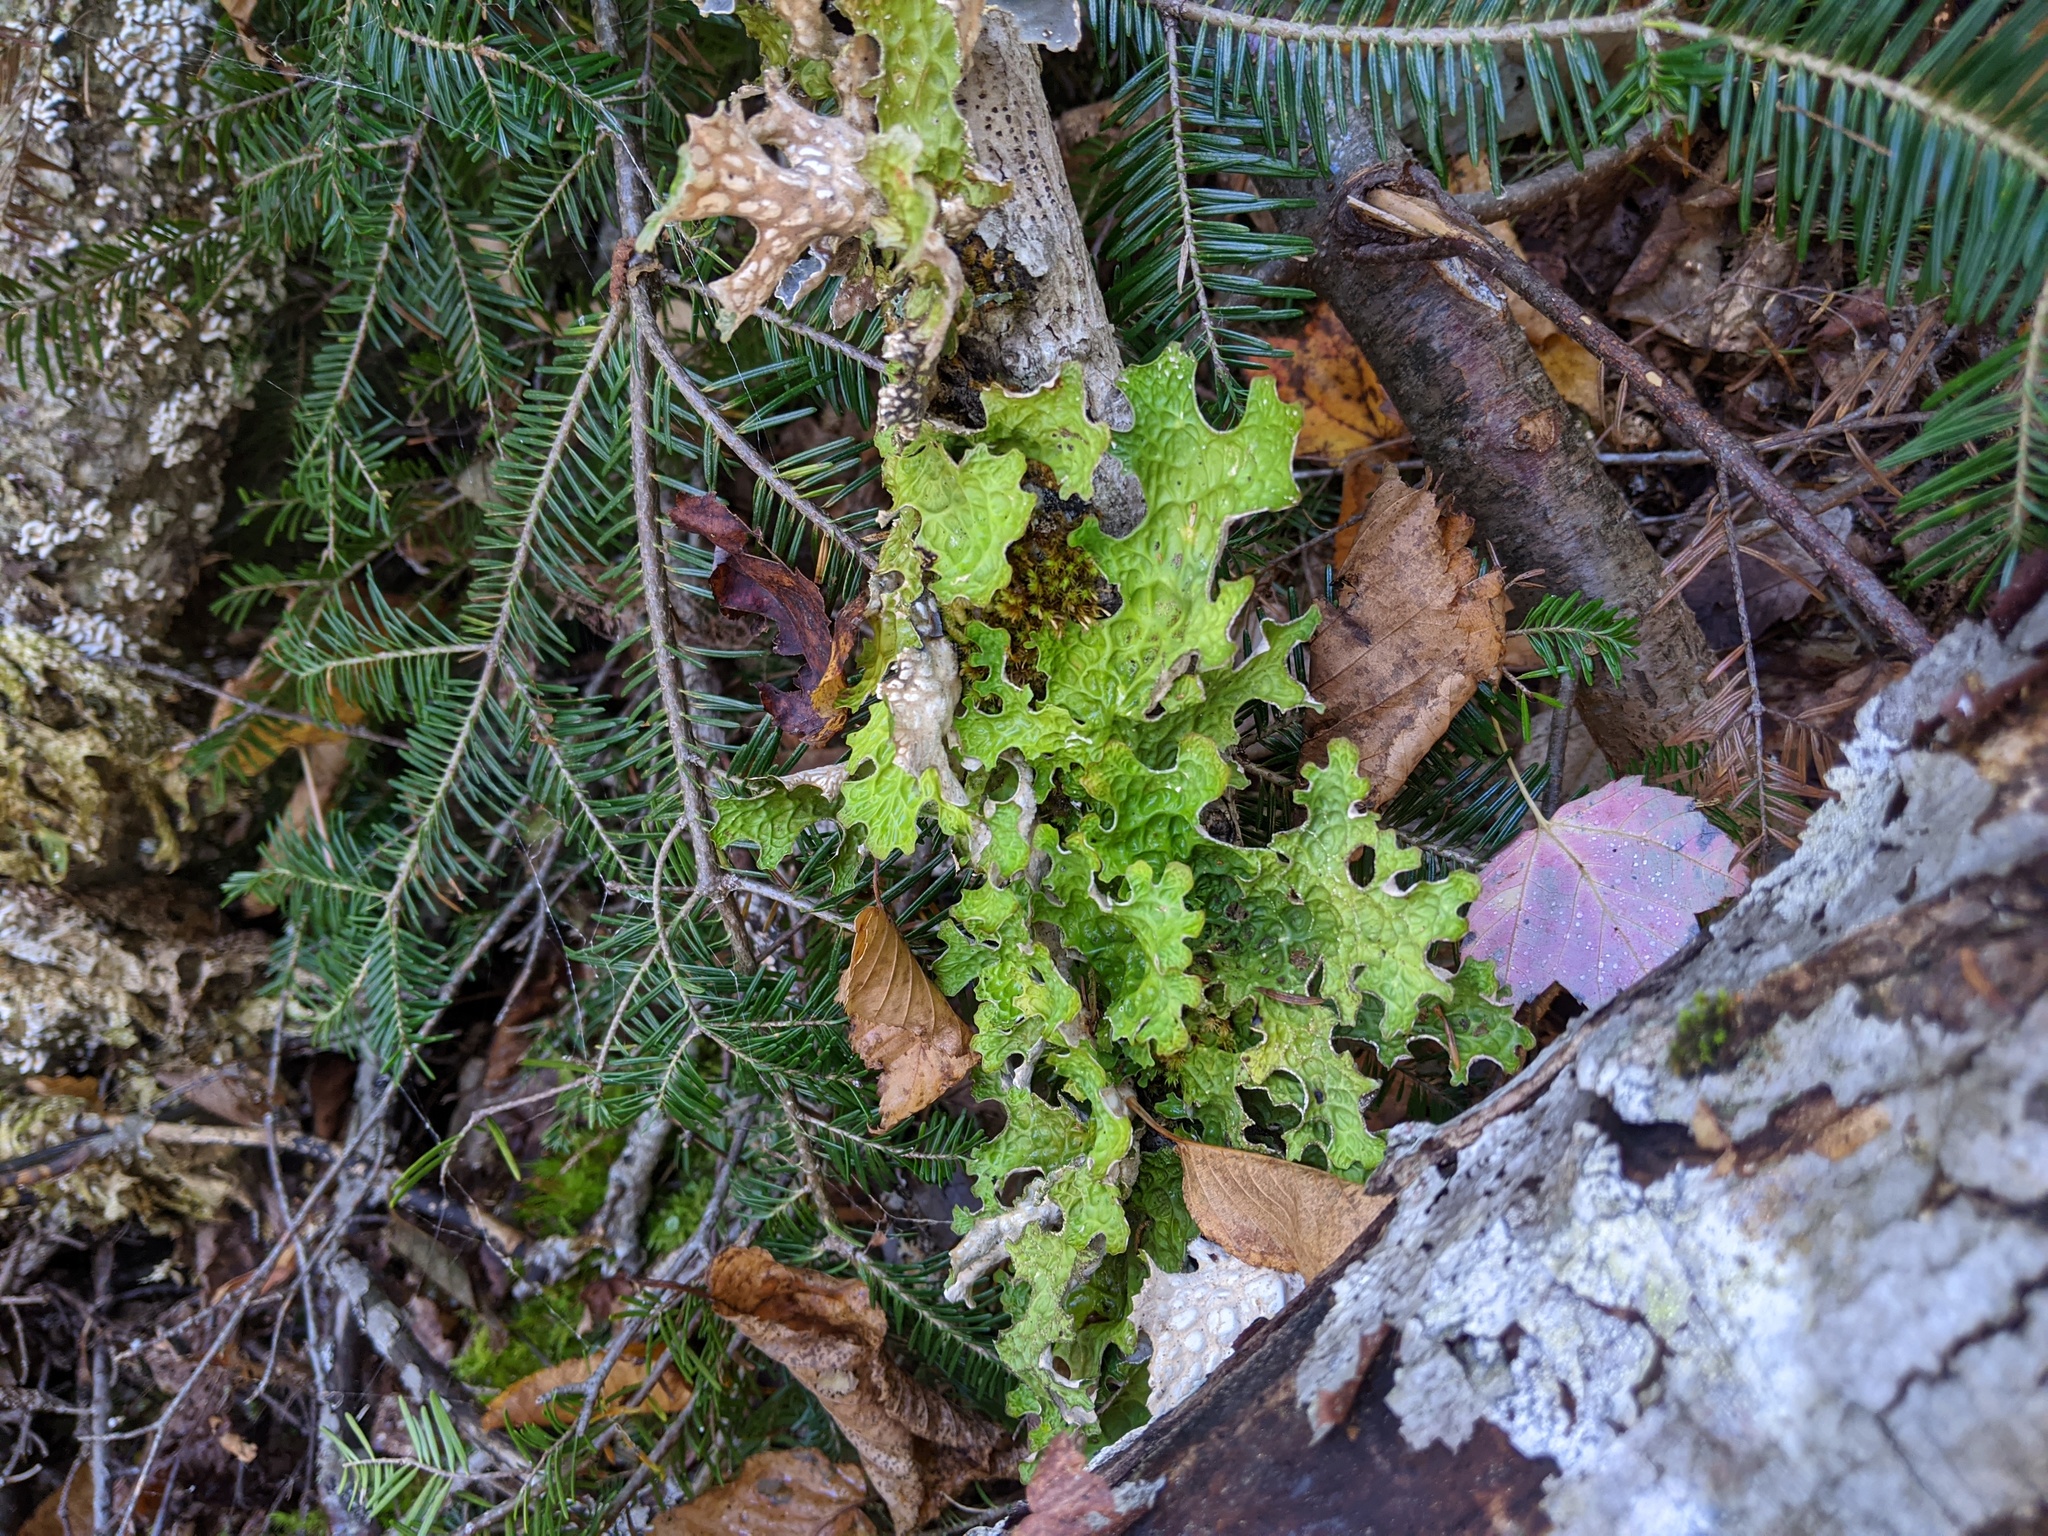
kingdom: Fungi
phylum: Ascomycota
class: Lecanoromycetes
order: Peltigerales
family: Lobariaceae
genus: Lobaria
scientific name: Lobaria pulmonaria
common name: Lungwort
